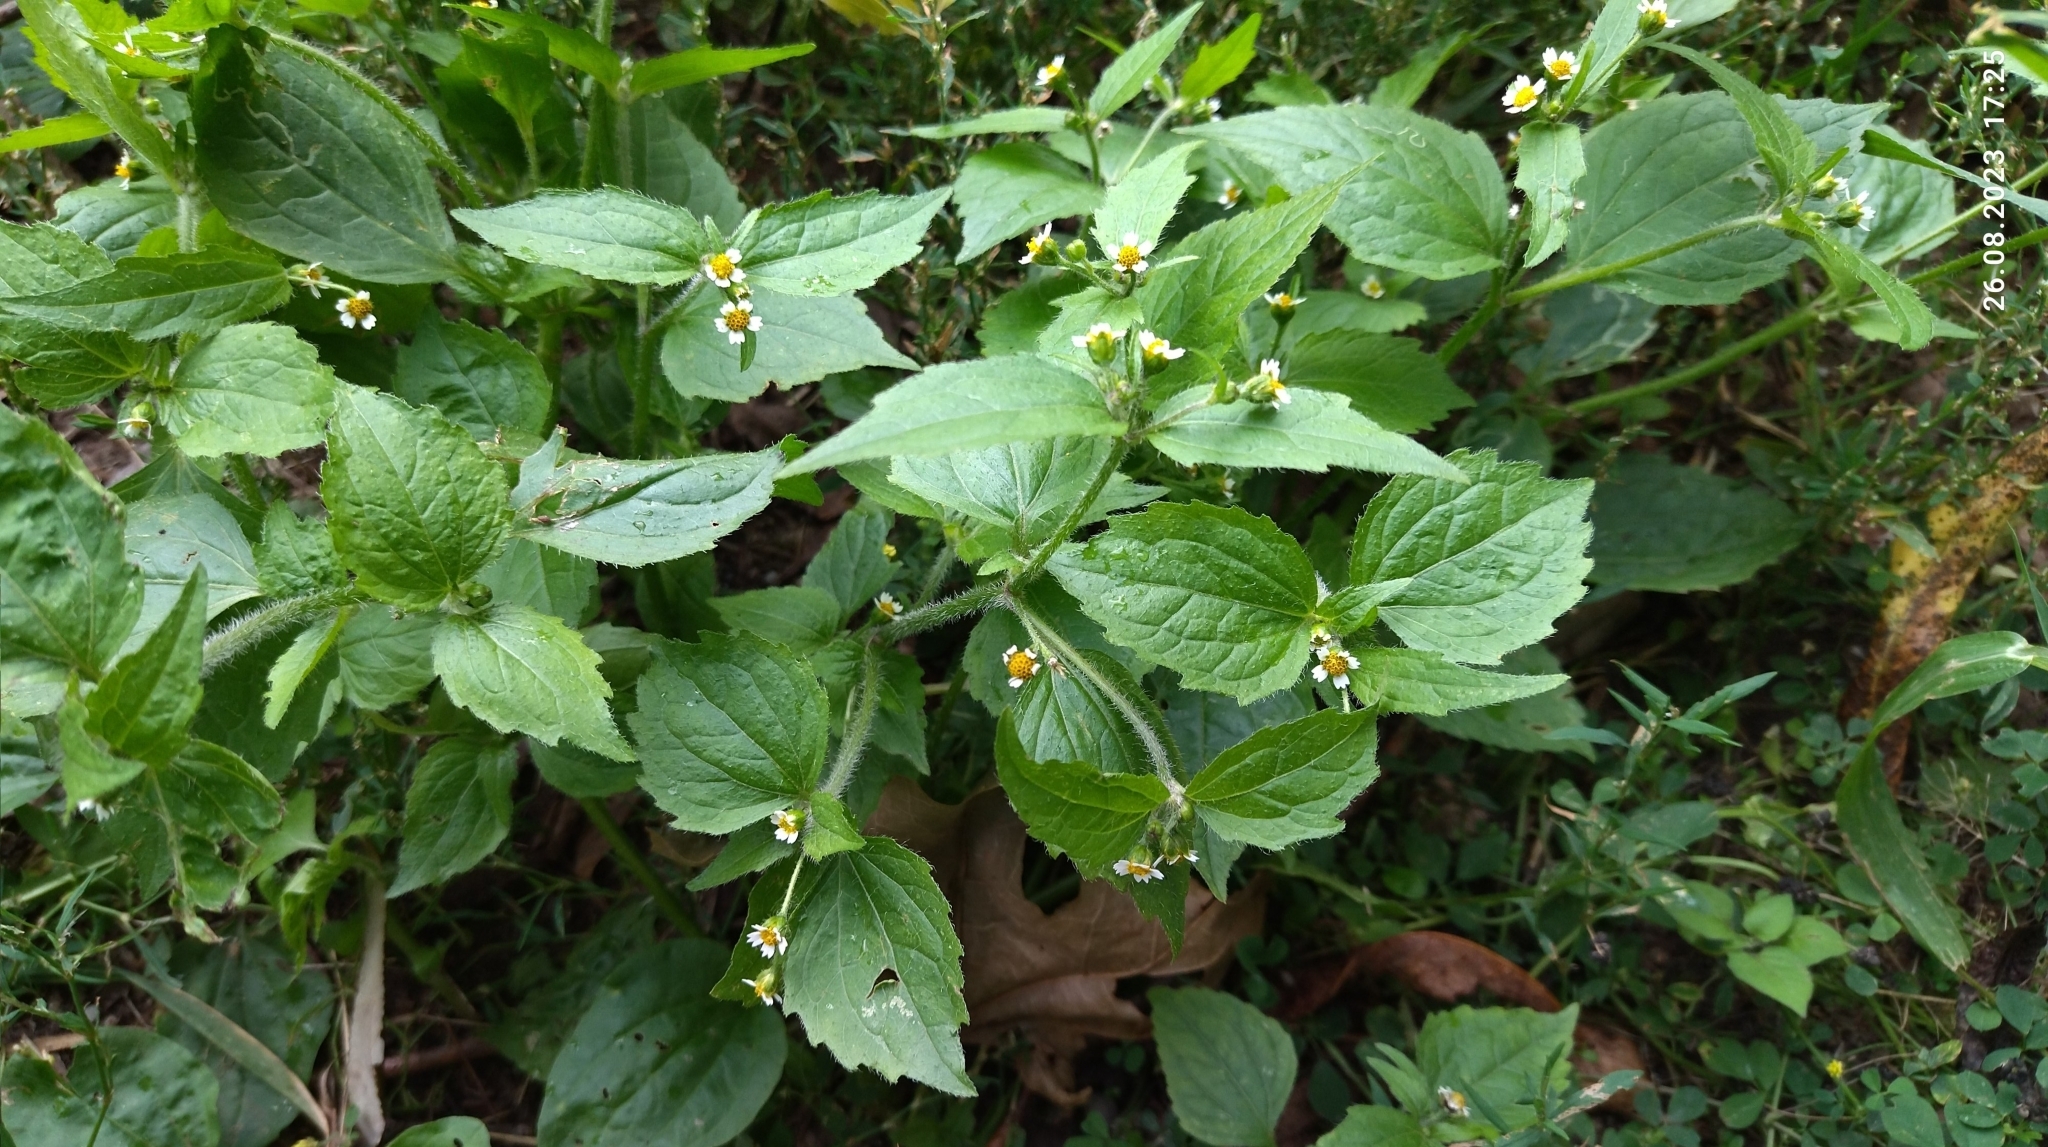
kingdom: Plantae
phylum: Tracheophyta
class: Magnoliopsida
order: Asterales
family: Asteraceae
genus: Galinsoga
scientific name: Galinsoga quadriradiata
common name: Shaggy soldier
